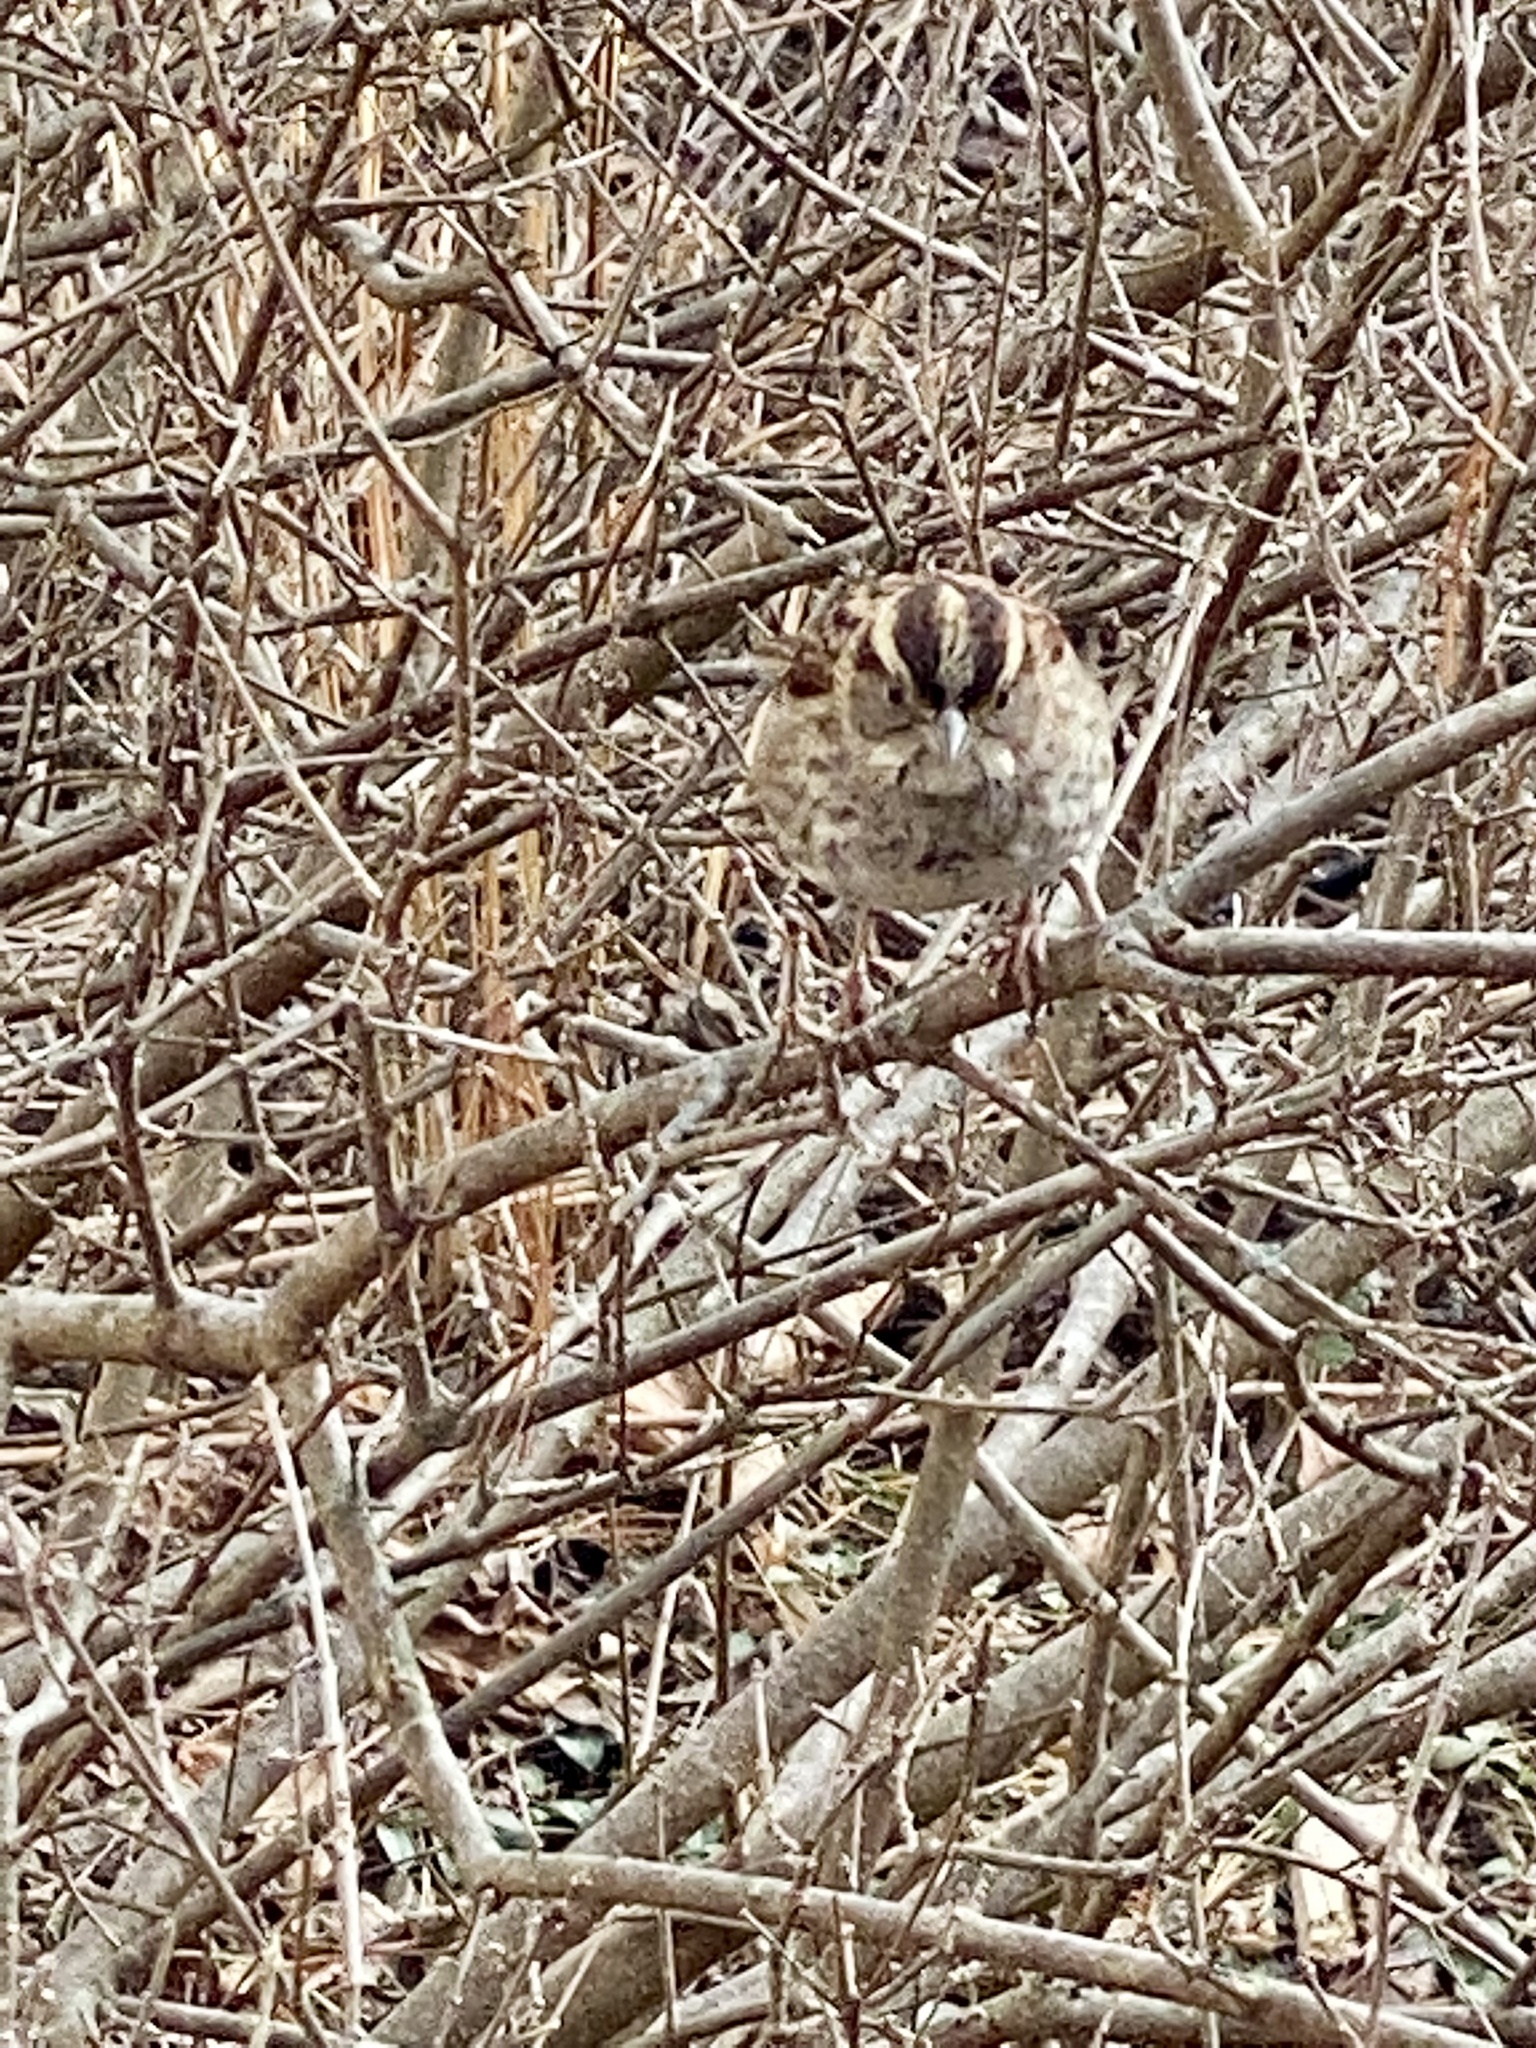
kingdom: Animalia
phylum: Chordata
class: Aves
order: Passeriformes
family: Passerellidae
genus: Zonotrichia
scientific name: Zonotrichia albicollis
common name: White-throated sparrow
